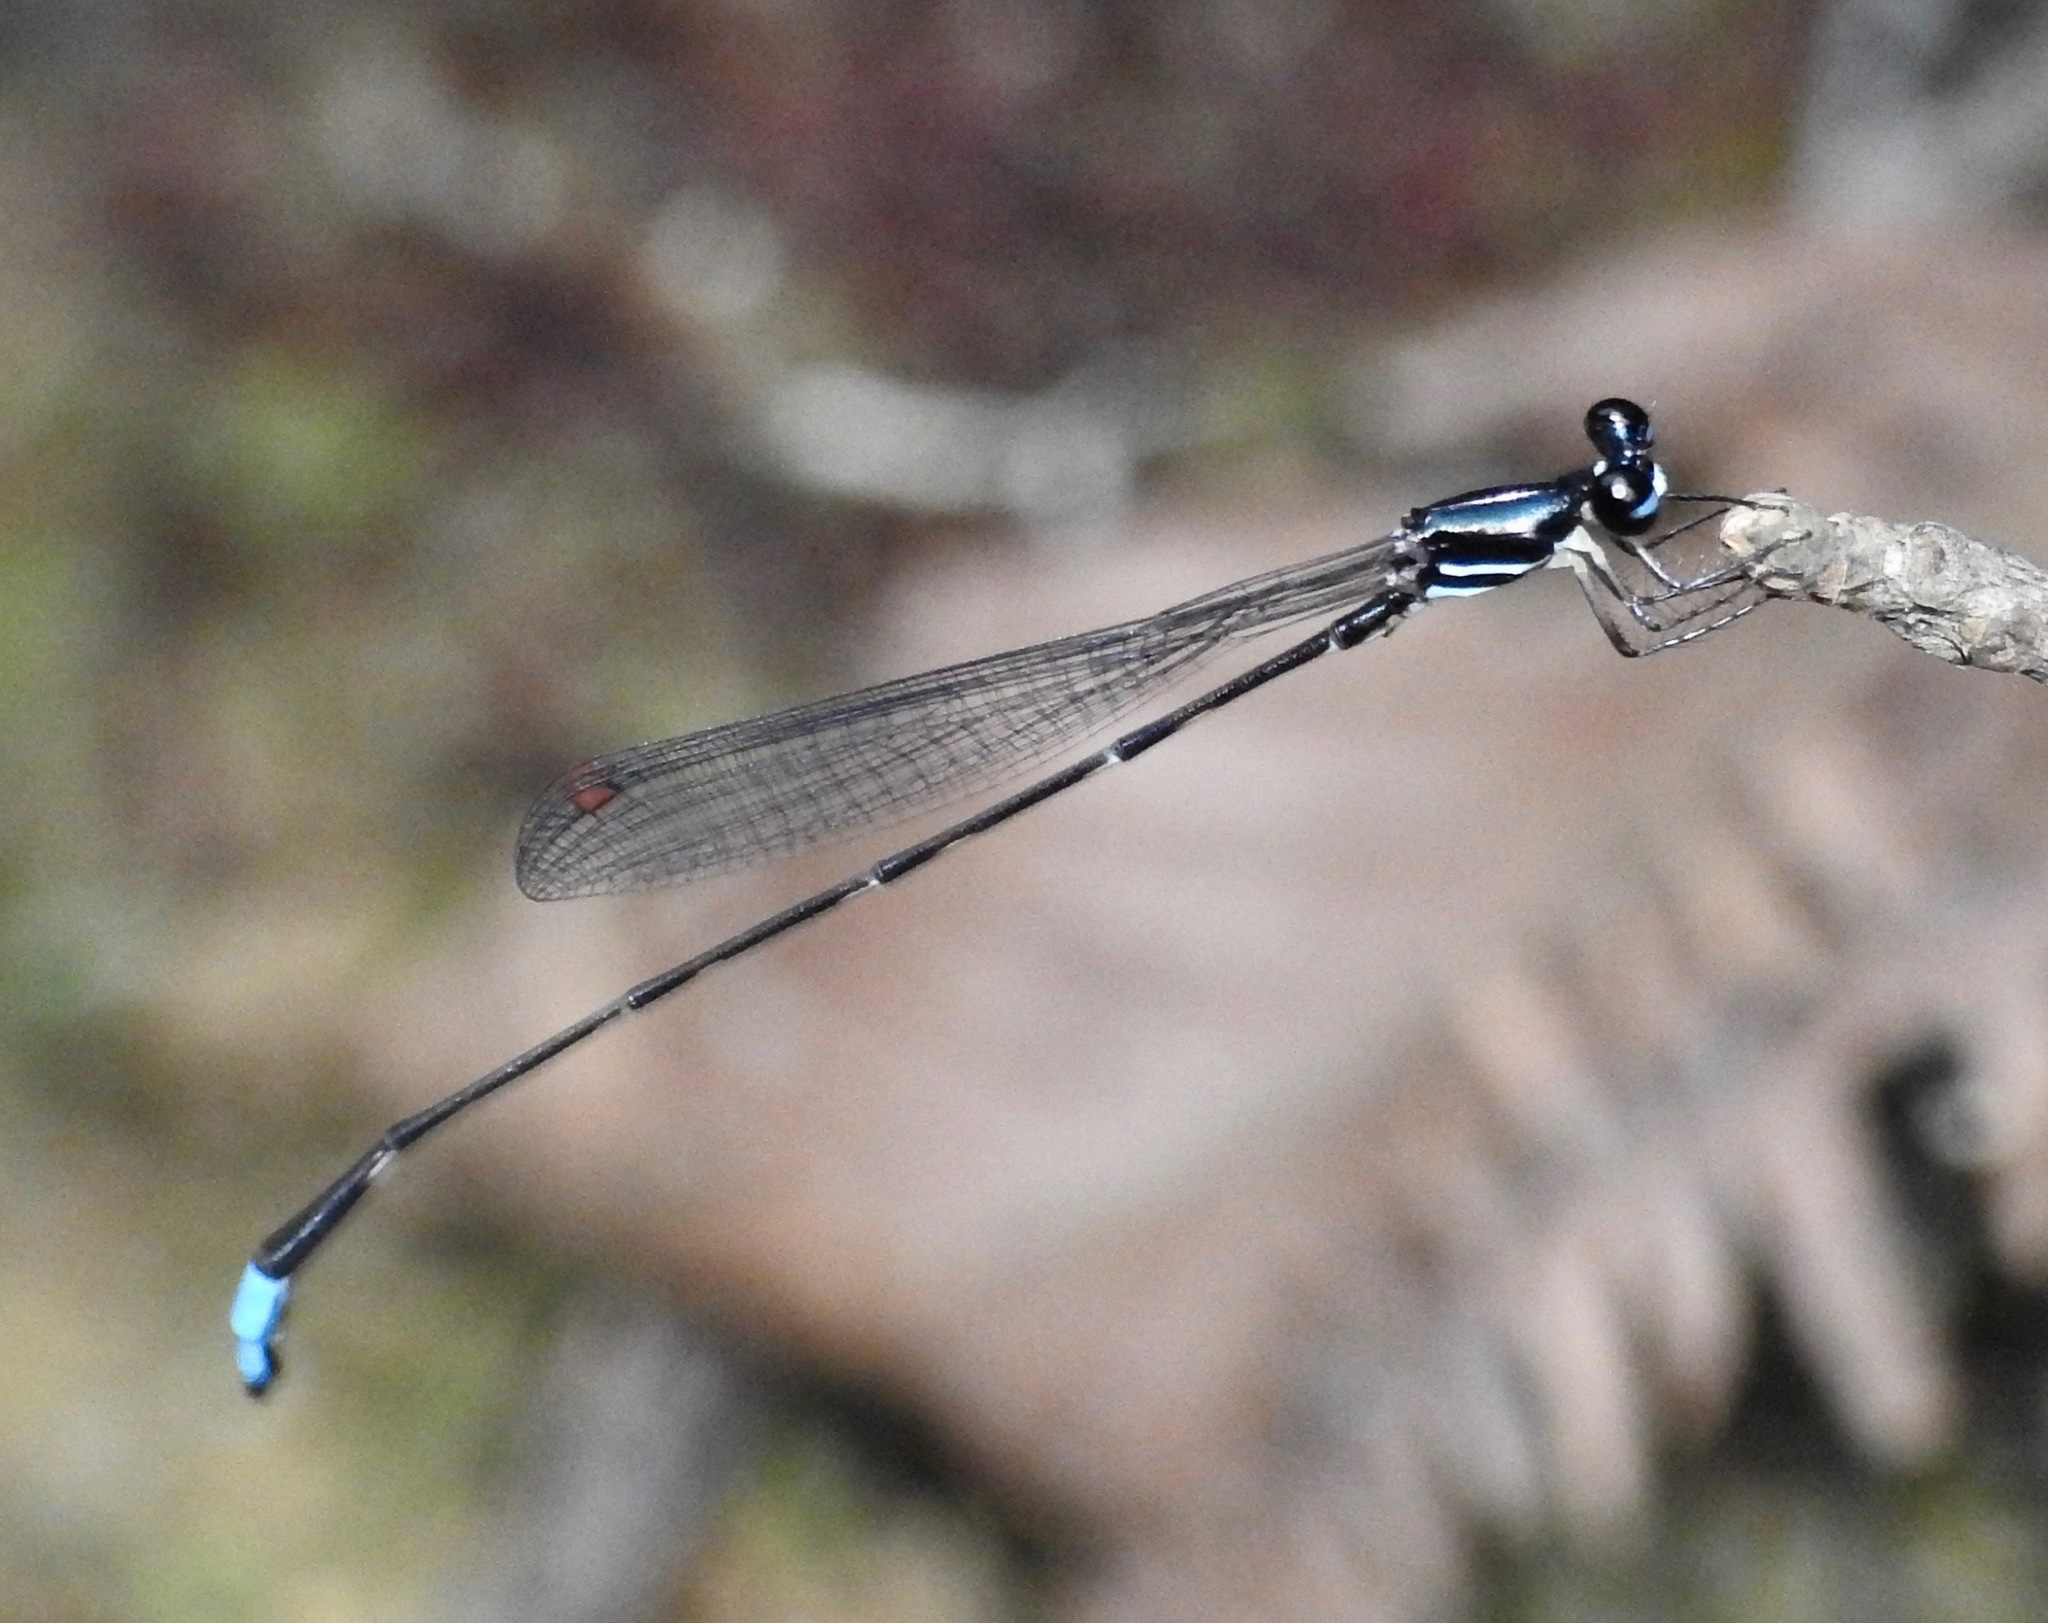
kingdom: Animalia
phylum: Arthropoda
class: Insecta
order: Odonata
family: Platystictidae
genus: Drepanosticta
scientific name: Drepanosticta zhoui
